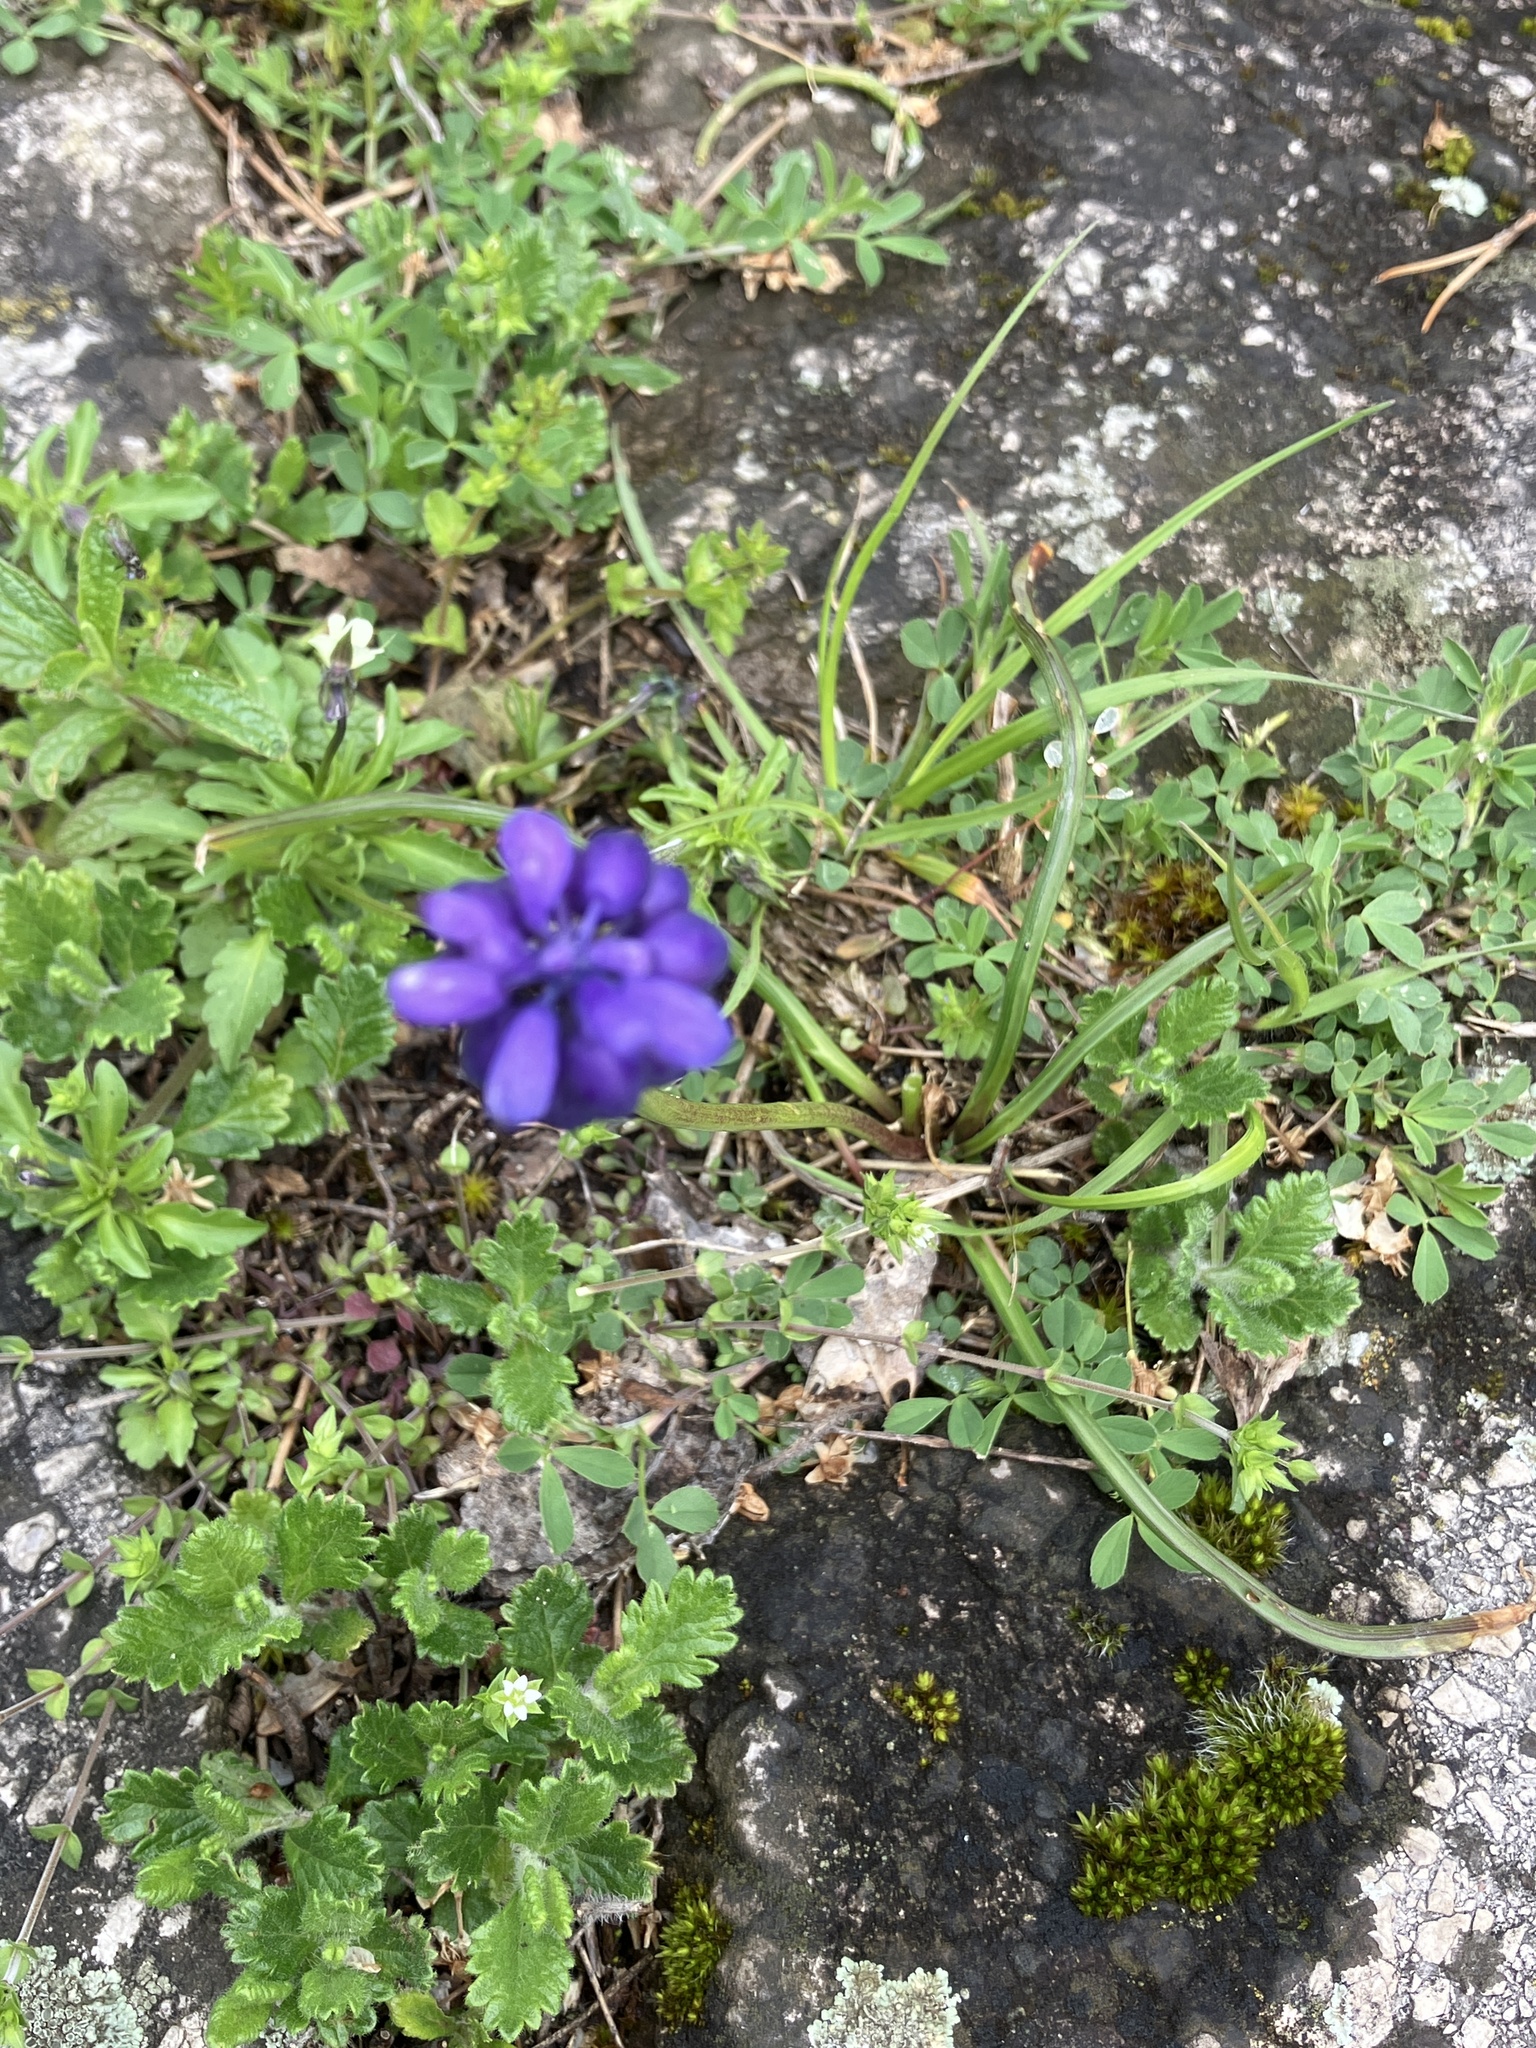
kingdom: Plantae
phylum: Tracheophyta
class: Liliopsida
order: Asparagales
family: Asparagaceae
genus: Muscari
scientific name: Muscari neglectum
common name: Grape-hyacinth
